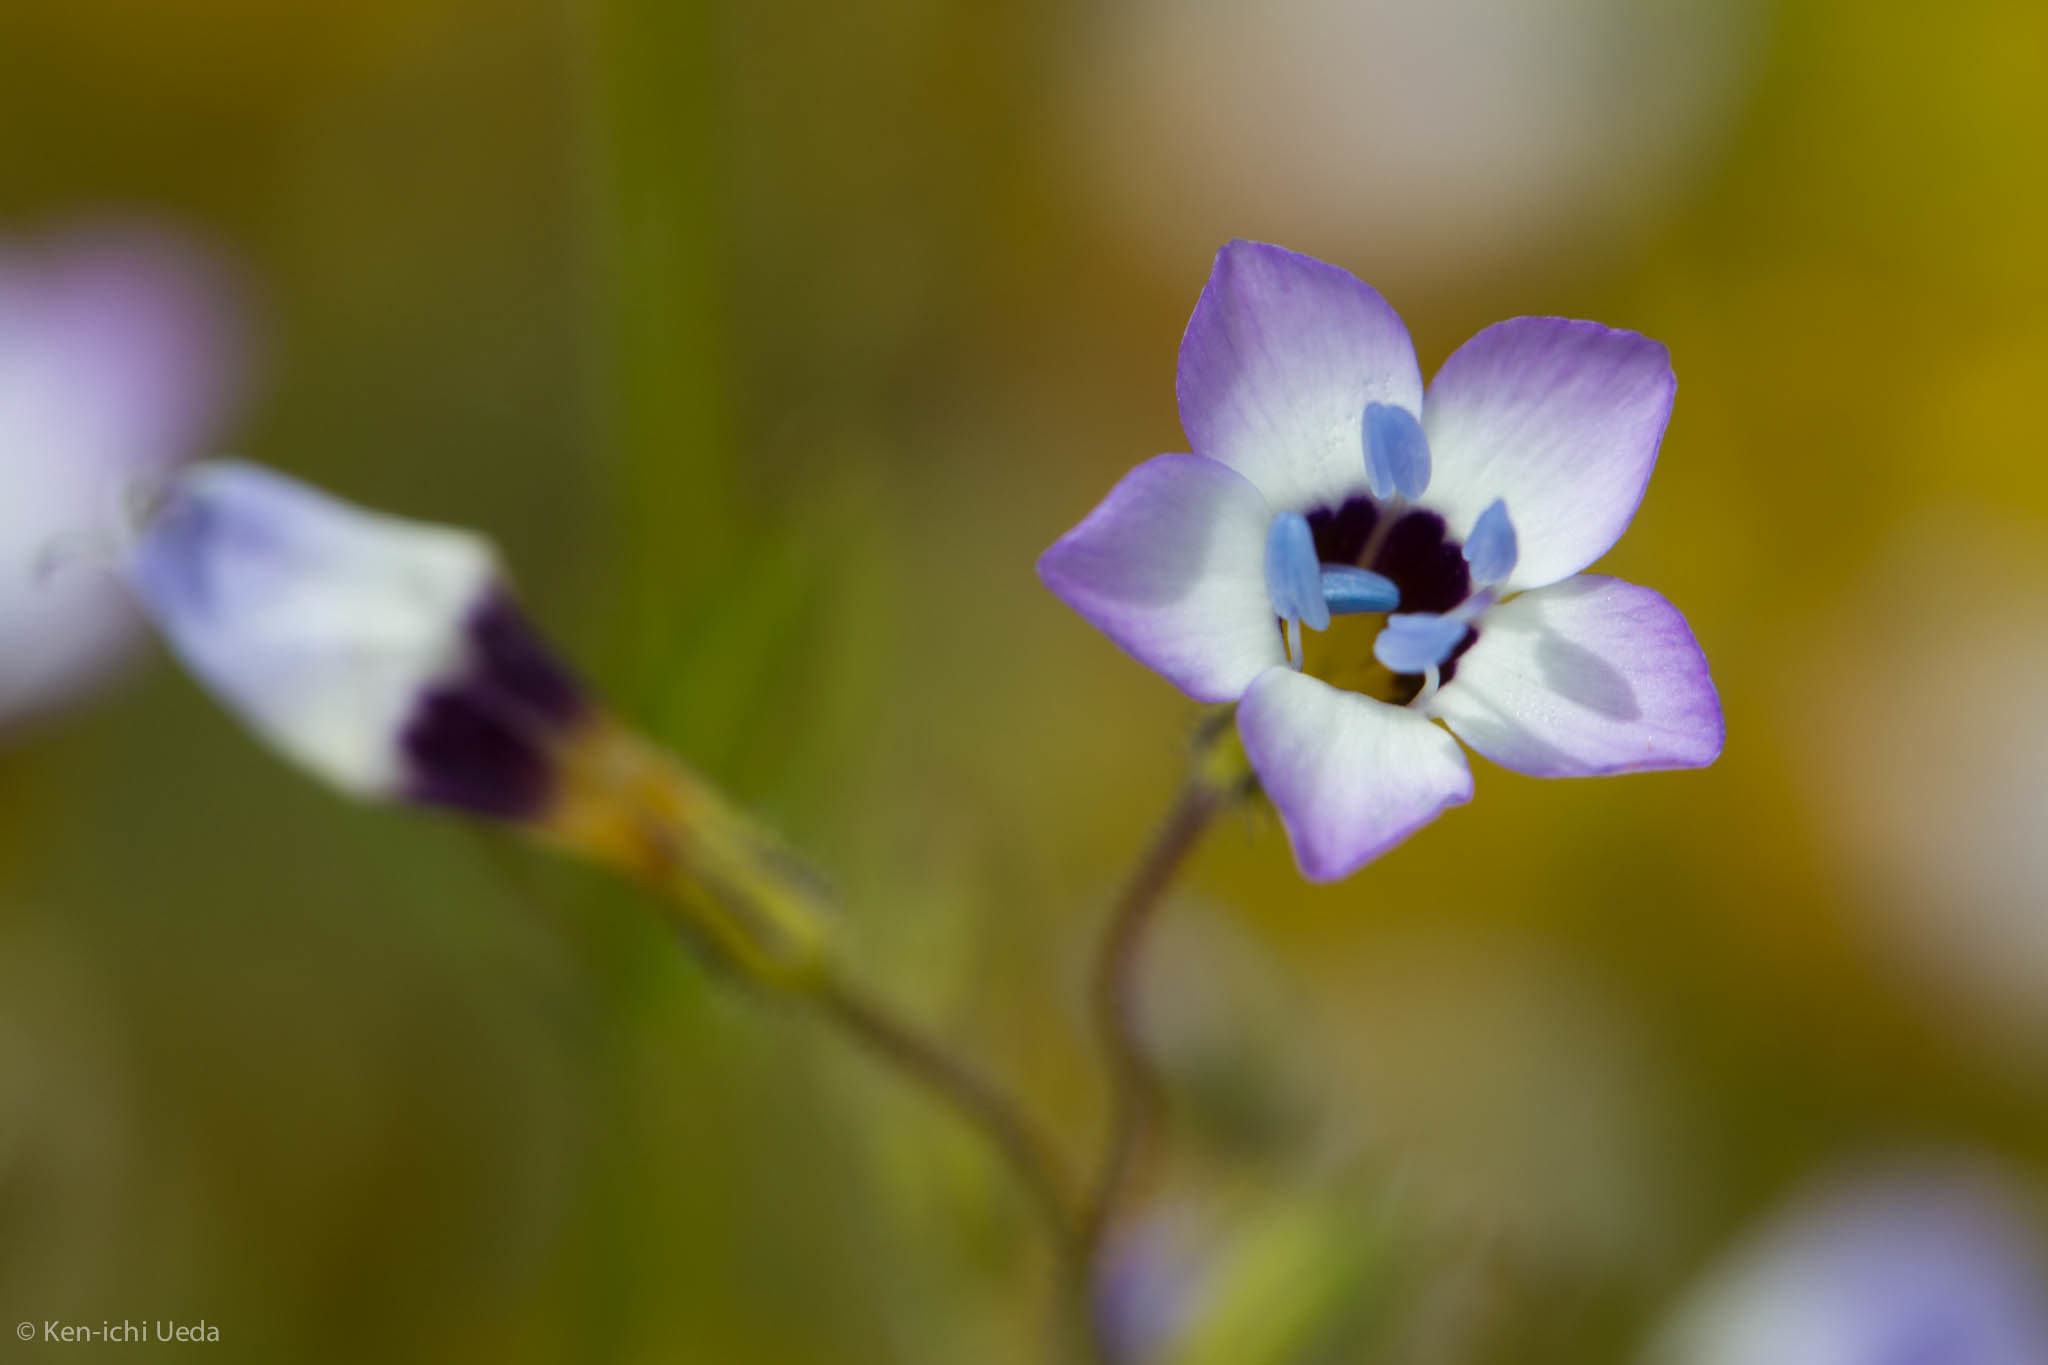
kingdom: Plantae
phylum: Tracheophyta
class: Magnoliopsida
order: Ericales
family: Polemoniaceae
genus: Gilia
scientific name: Gilia tricolor
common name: Bird's-eyes
